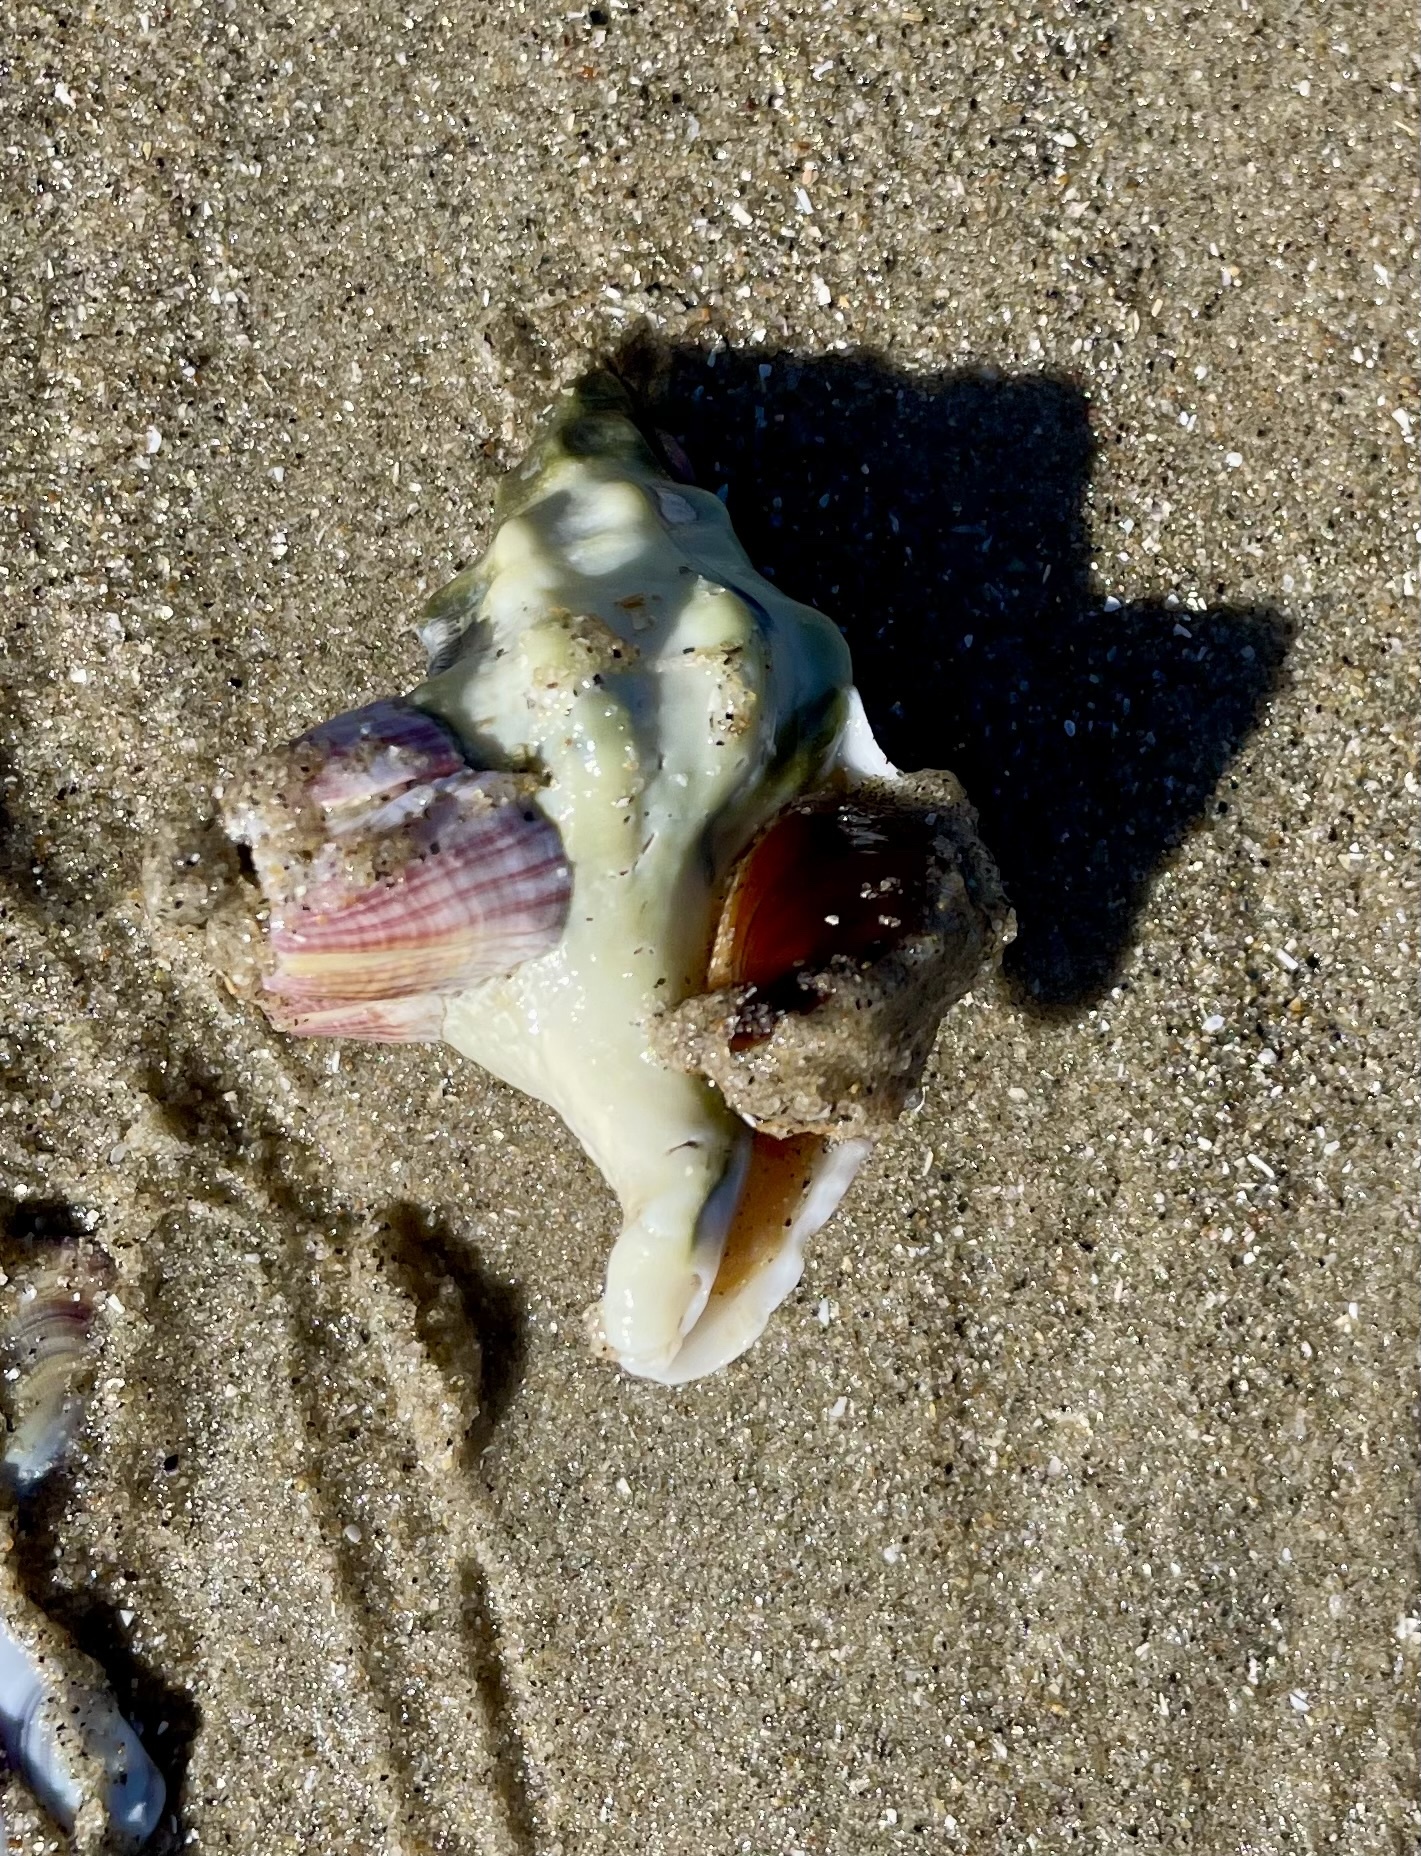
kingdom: Animalia
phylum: Mollusca
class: Gastropoda
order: Neogastropoda
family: Austrosiphonidae
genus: Kelletia
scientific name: Kelletia kelletii
